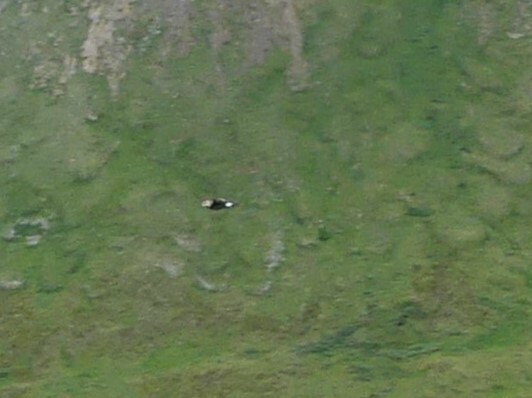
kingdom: Animalia
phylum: Chordata
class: Aves
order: Charadriiformes
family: Scolopacidae
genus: Calidris
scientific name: Calidris minutilla
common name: Least sandpiper
